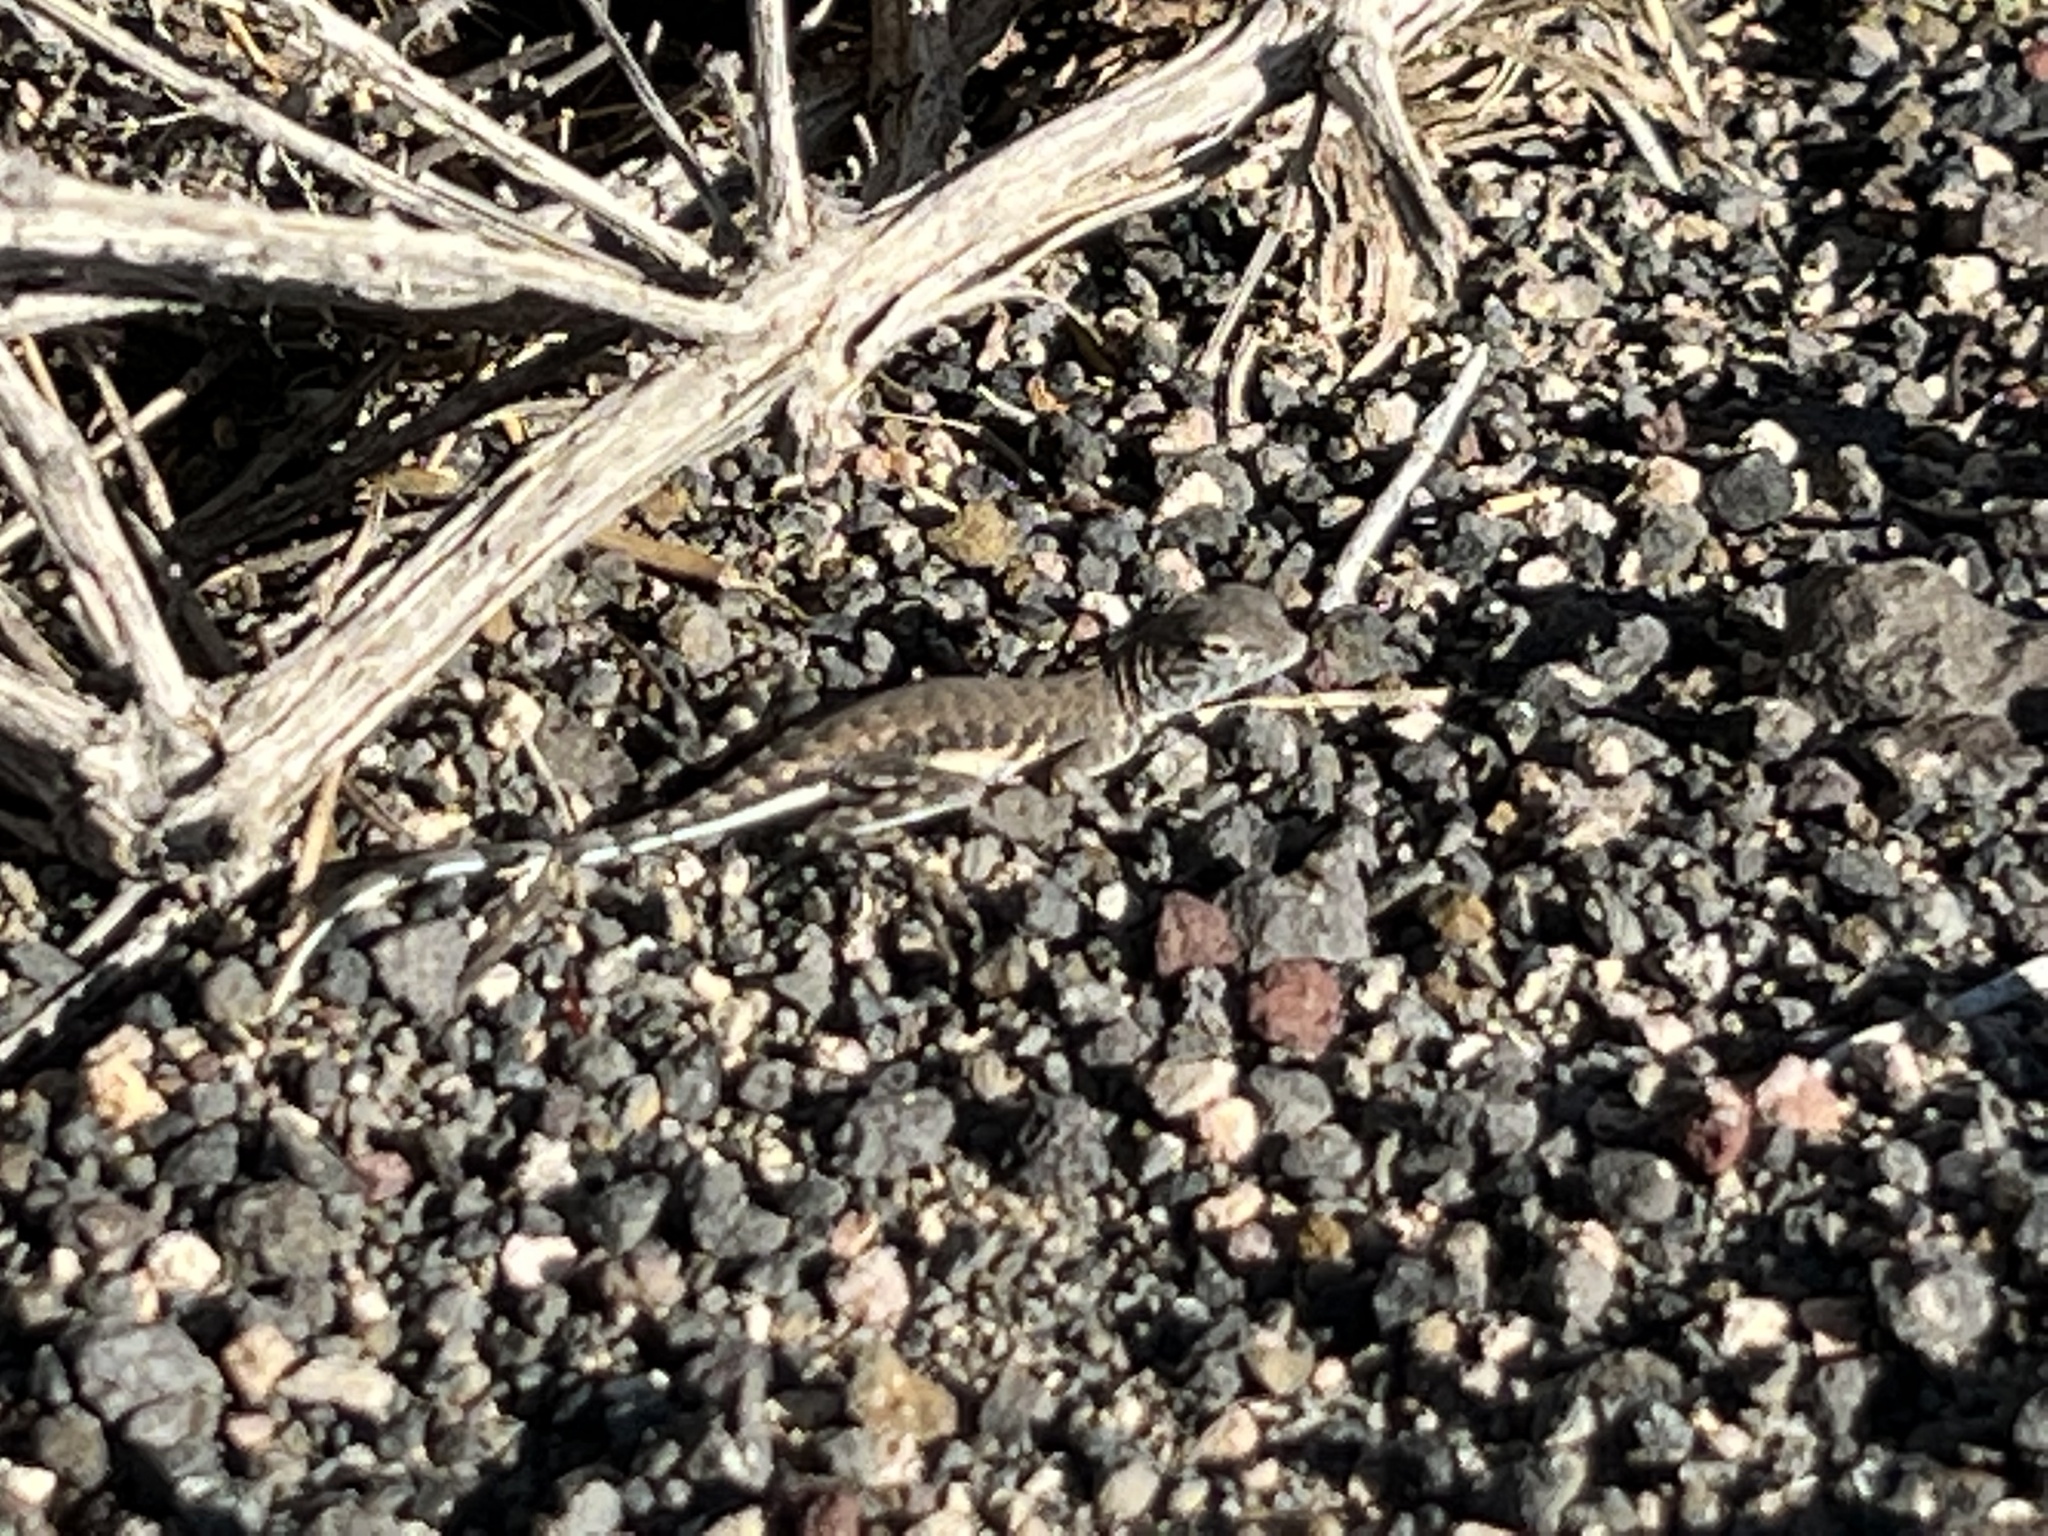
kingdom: Animalia
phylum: Chordata
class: Squamata
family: Phrynosomatidae
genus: Callisaurus
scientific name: Callisaurus draconoides
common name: Zebra-tailed lizard
